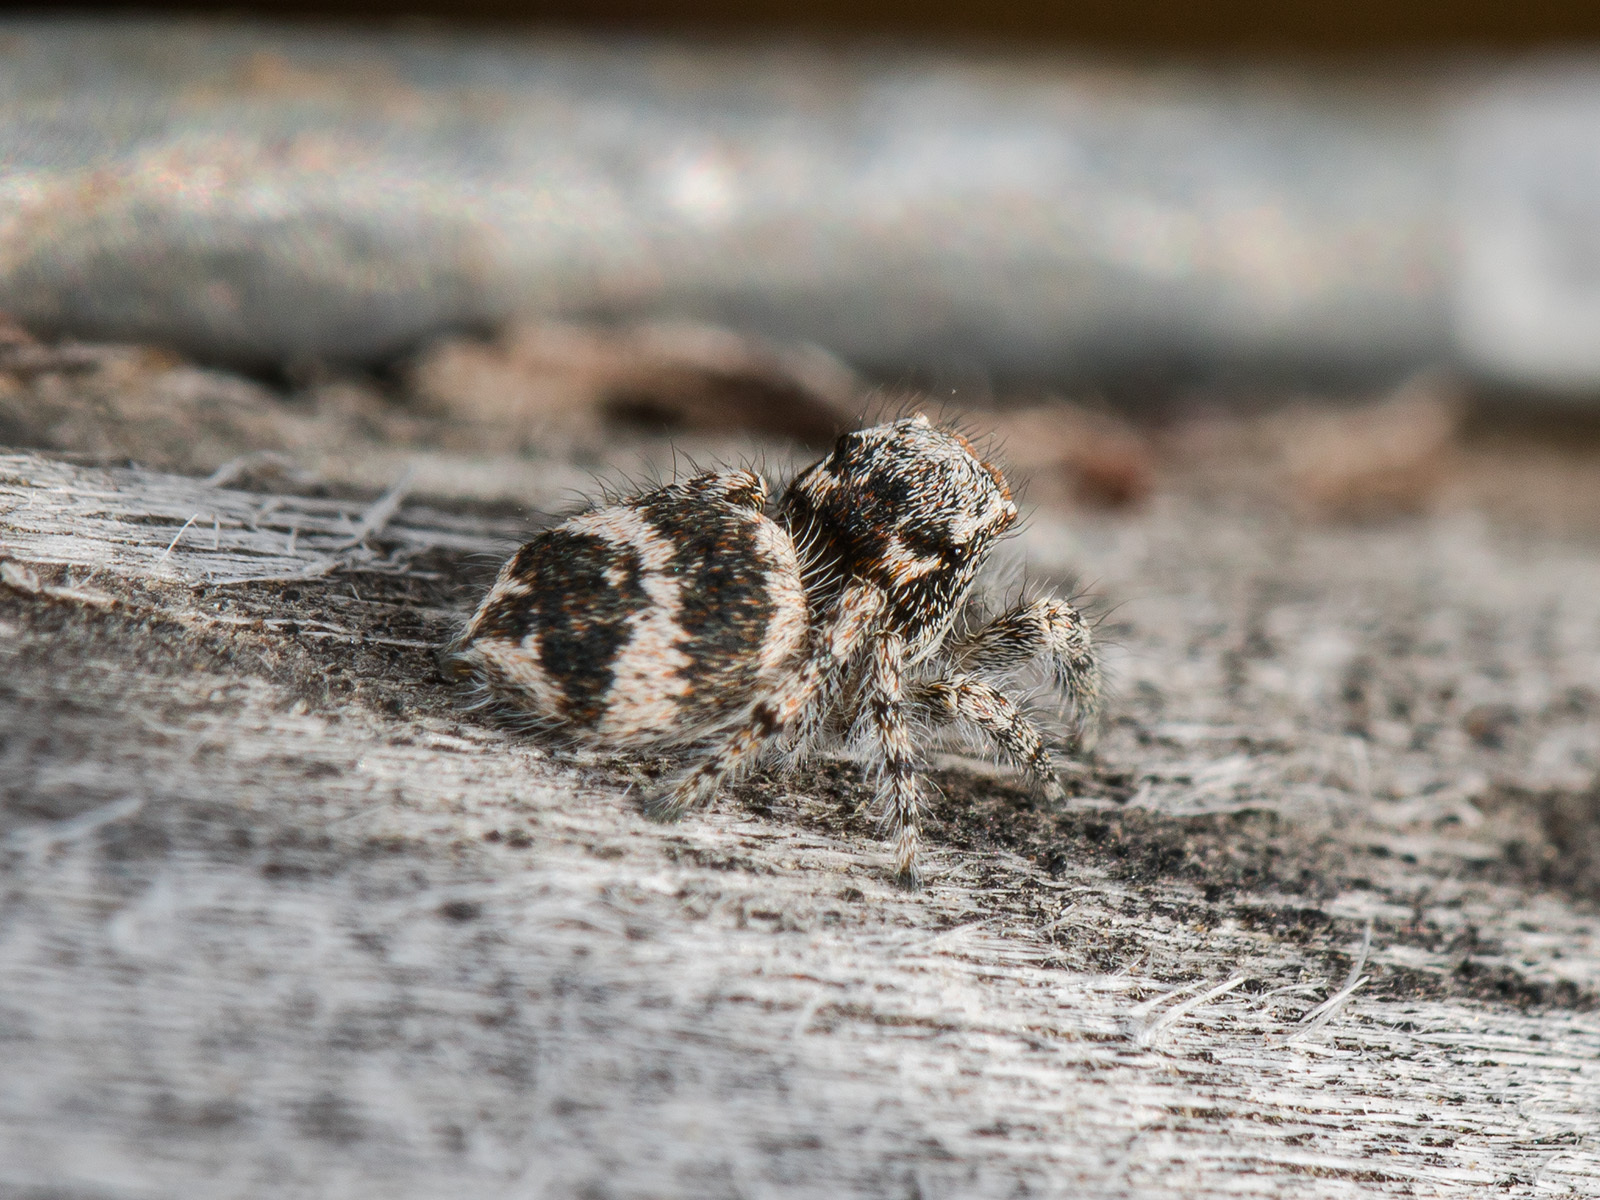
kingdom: Animalia
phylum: Arthropoda
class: Arachnida
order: Araneae
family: Salticidae
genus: Pseudomogrus
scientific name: Pseudomogrus albocinctus
